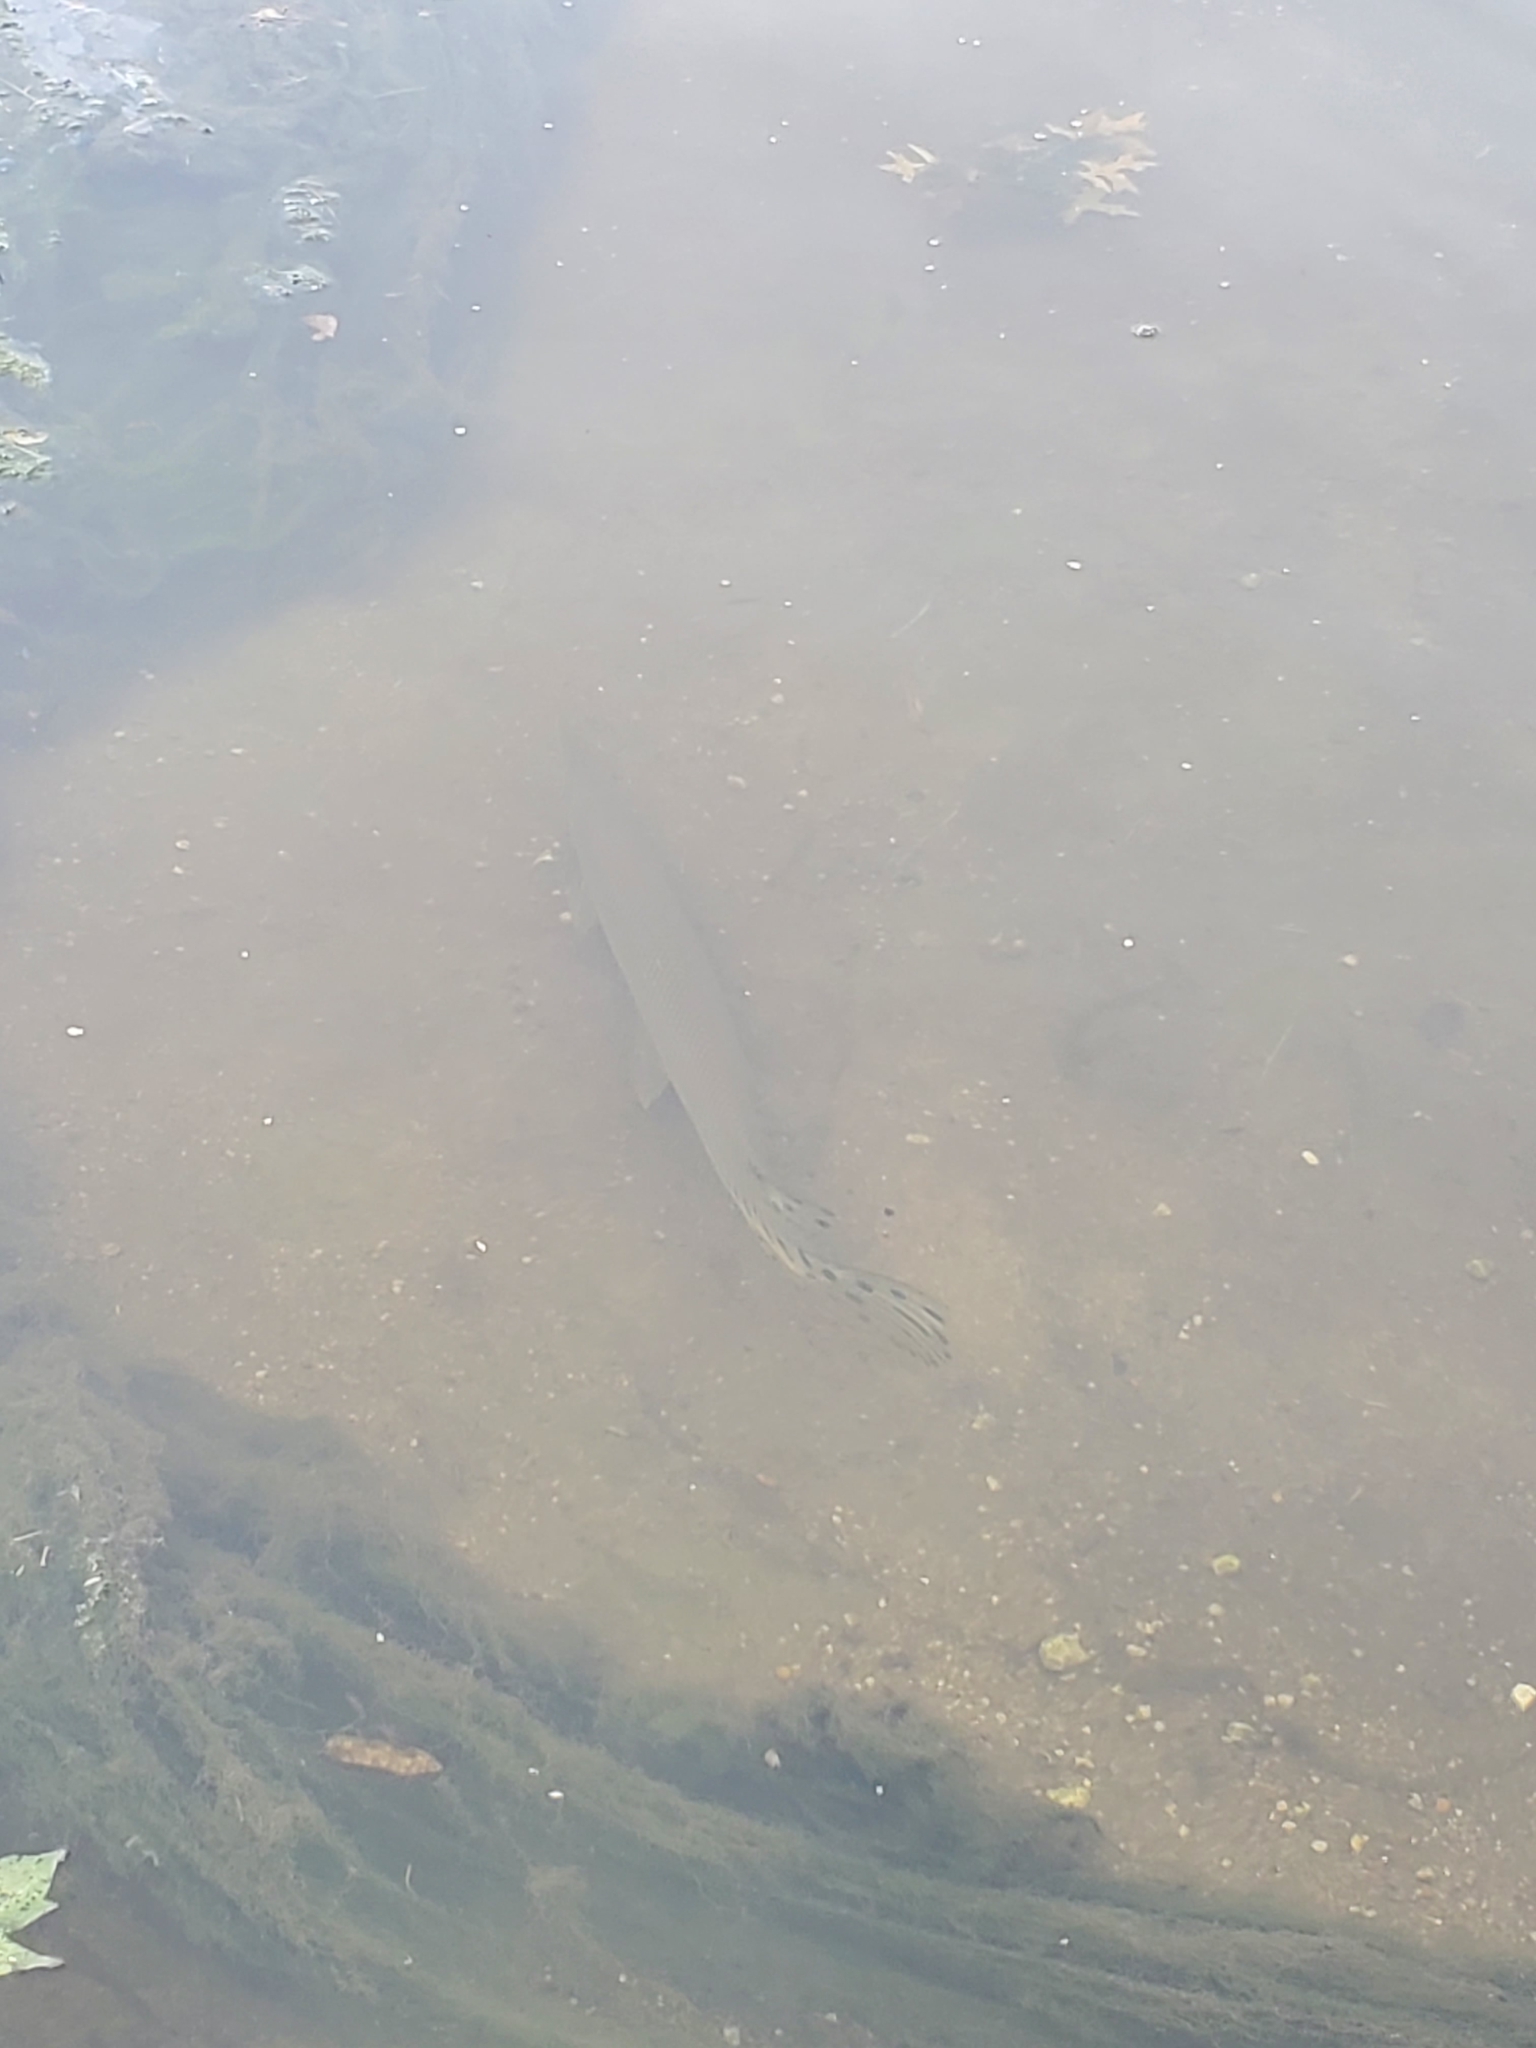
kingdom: Animalia
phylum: Chordata
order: Lepisosteiformes
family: Lepisosteidae
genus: Lepisosteus
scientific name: Lepisosteus platostomus
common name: Shortnose gar
